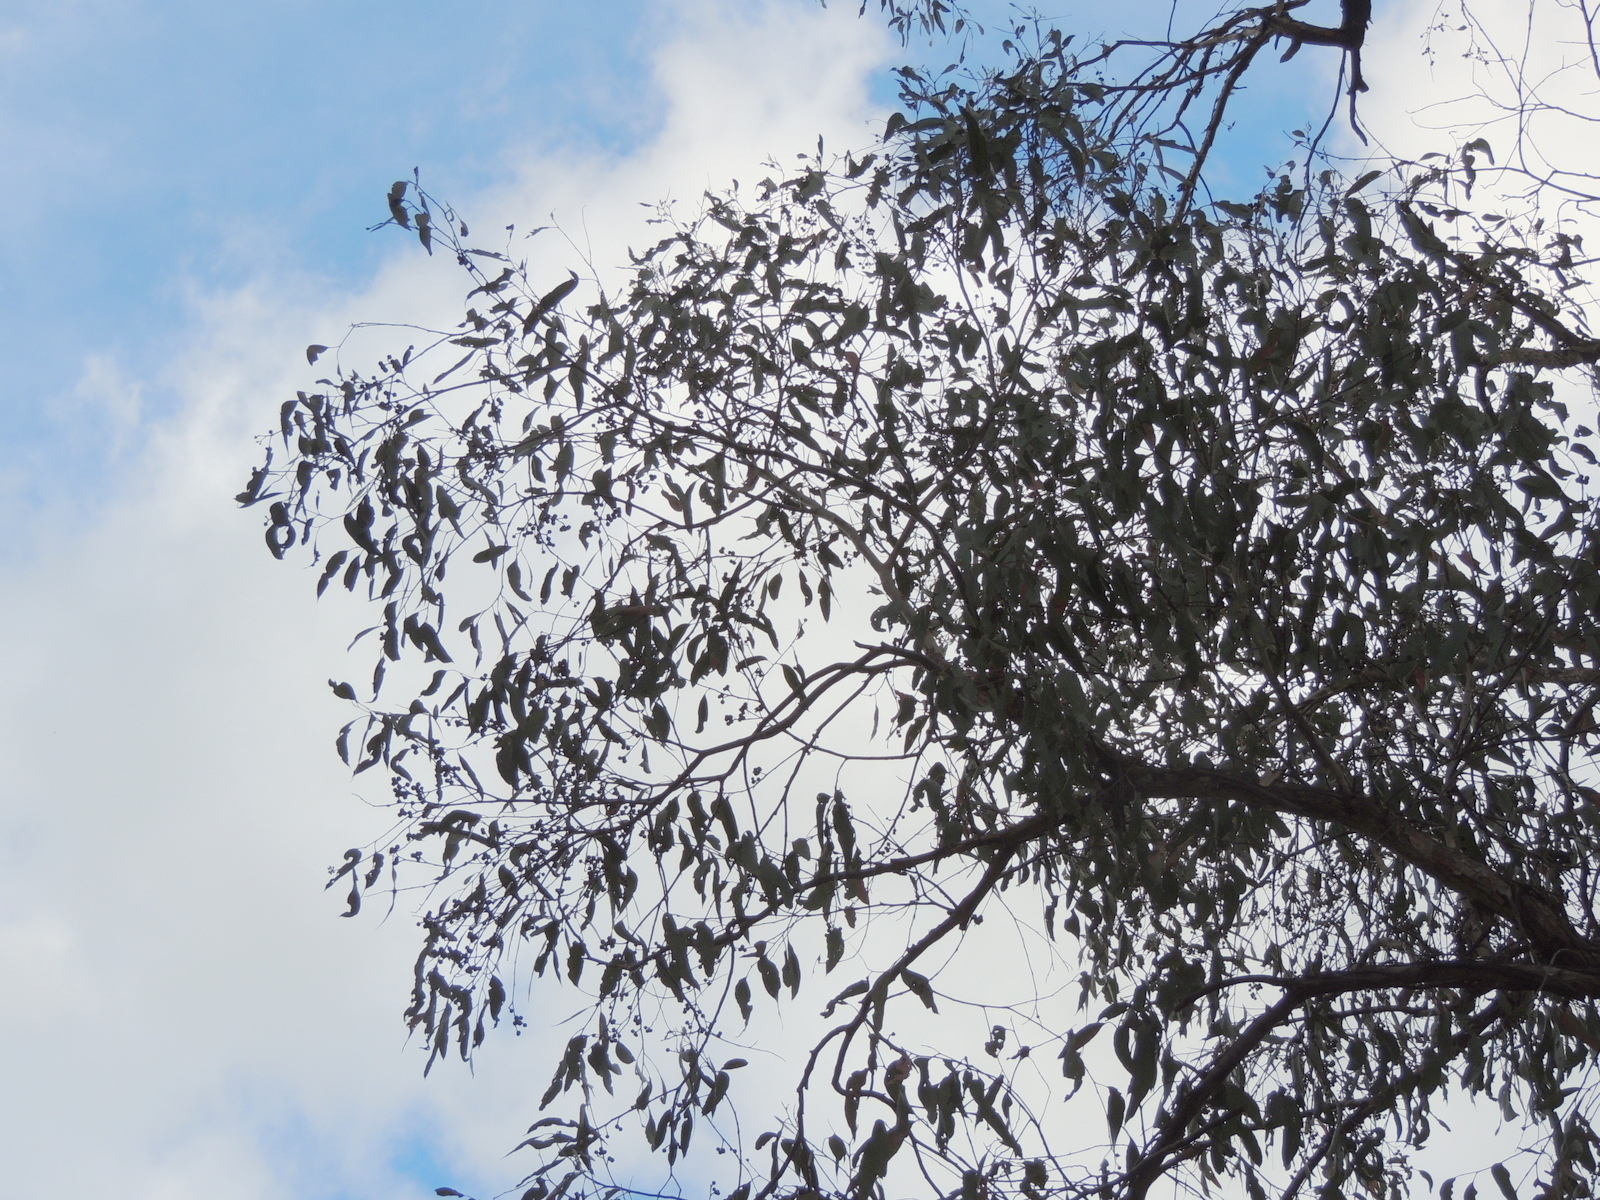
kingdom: Plantae
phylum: Tracheophyta
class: Magnoliopsida
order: Myrtales
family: Myrtaceae
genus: Eucalyptus
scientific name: Eucalyptus macrorhyncha
